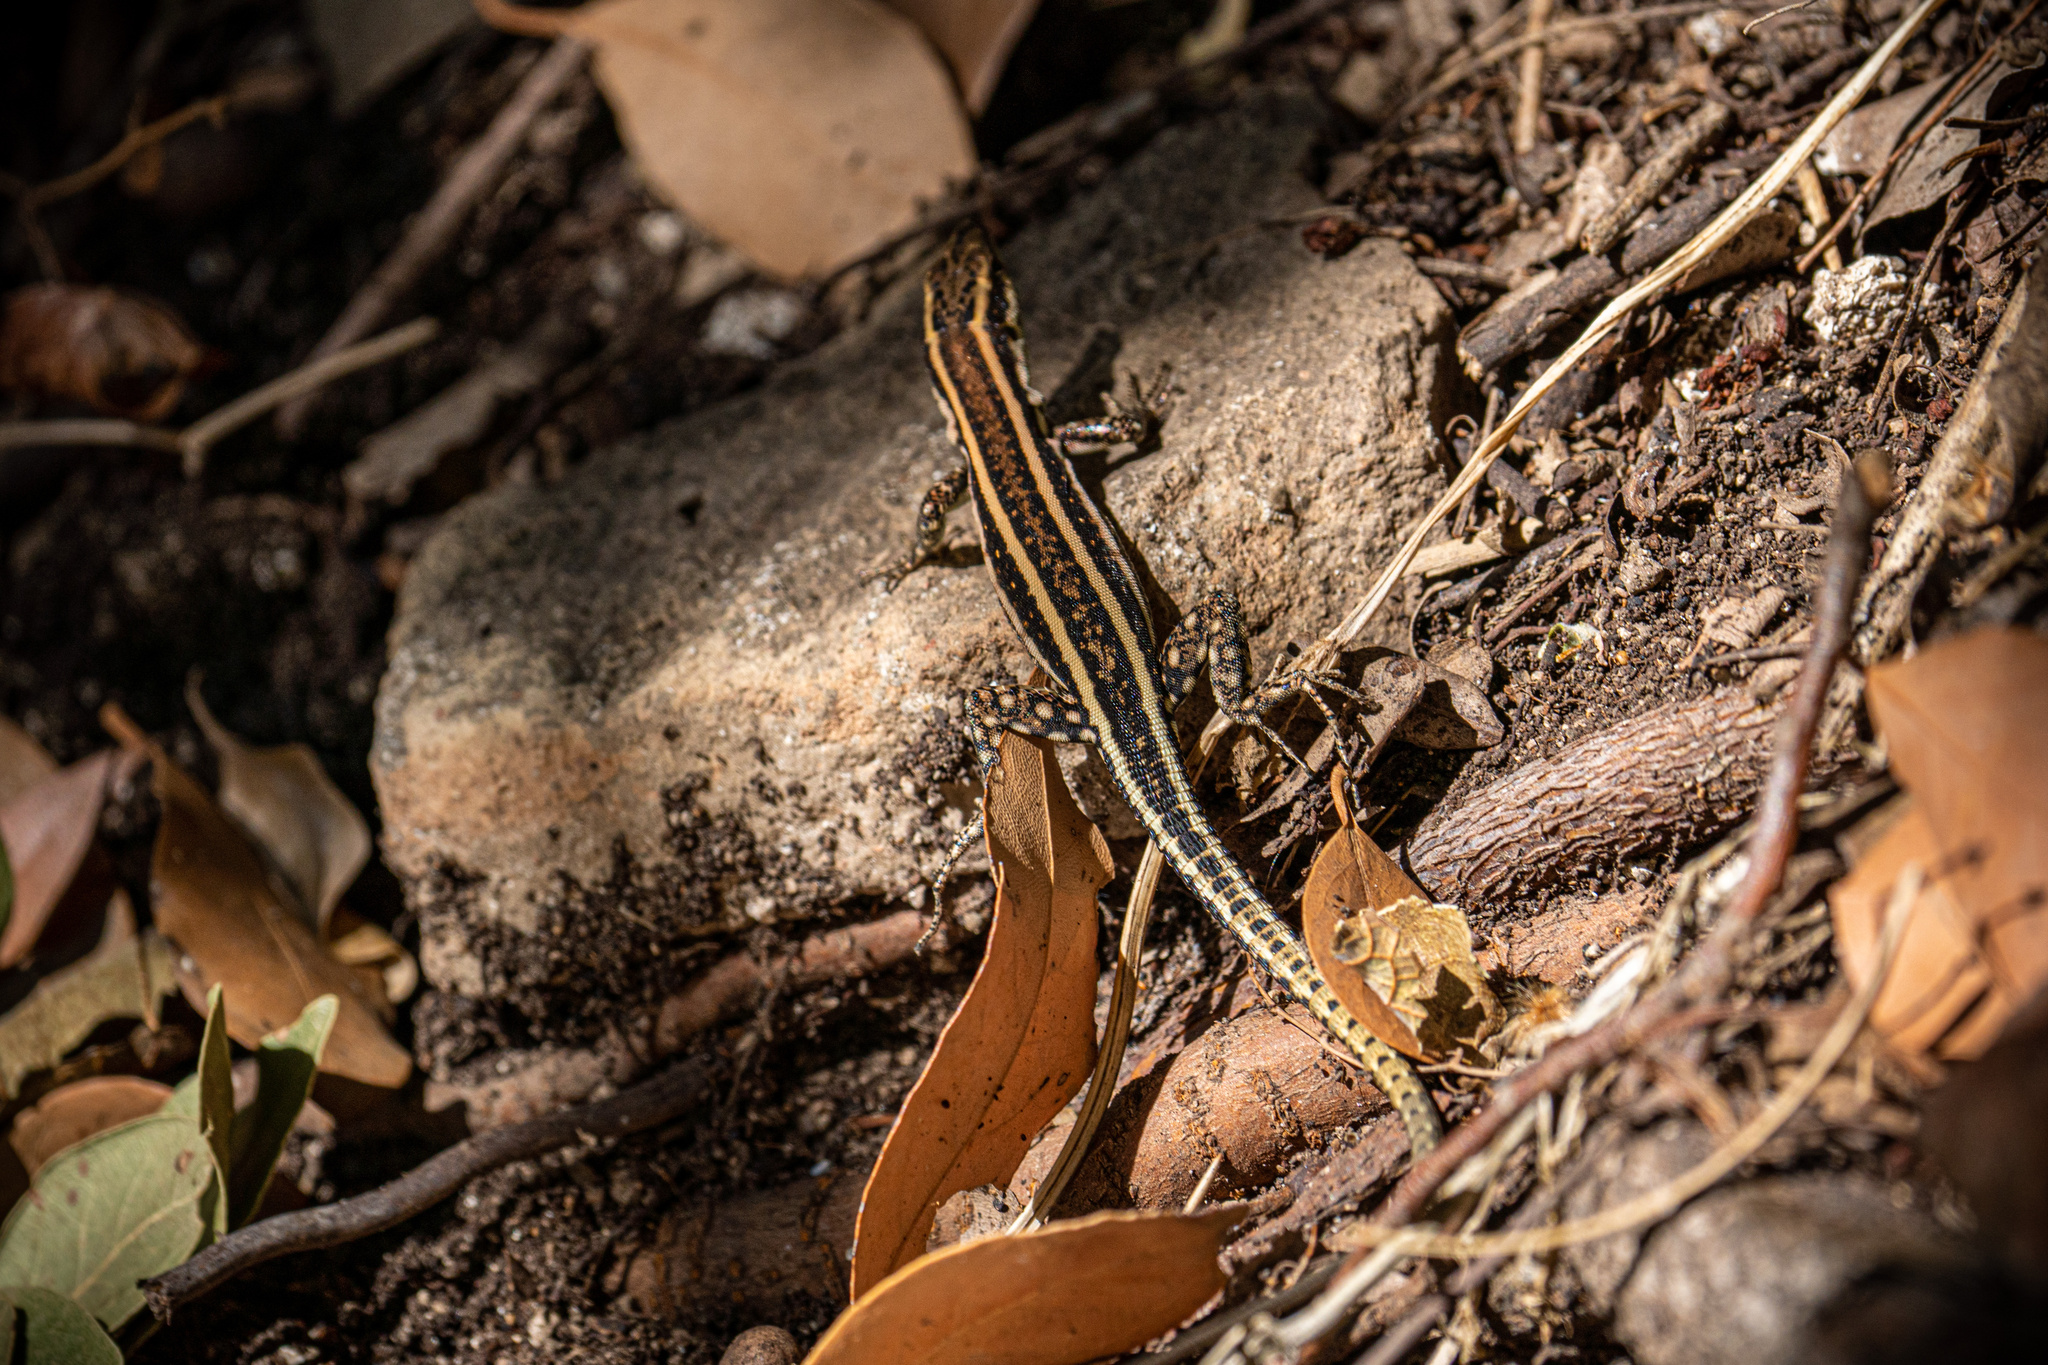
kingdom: Animalia
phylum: Chordata
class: Squamata
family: Lacertidae
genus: Anatololacerta
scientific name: Anatololacerta finikensis
